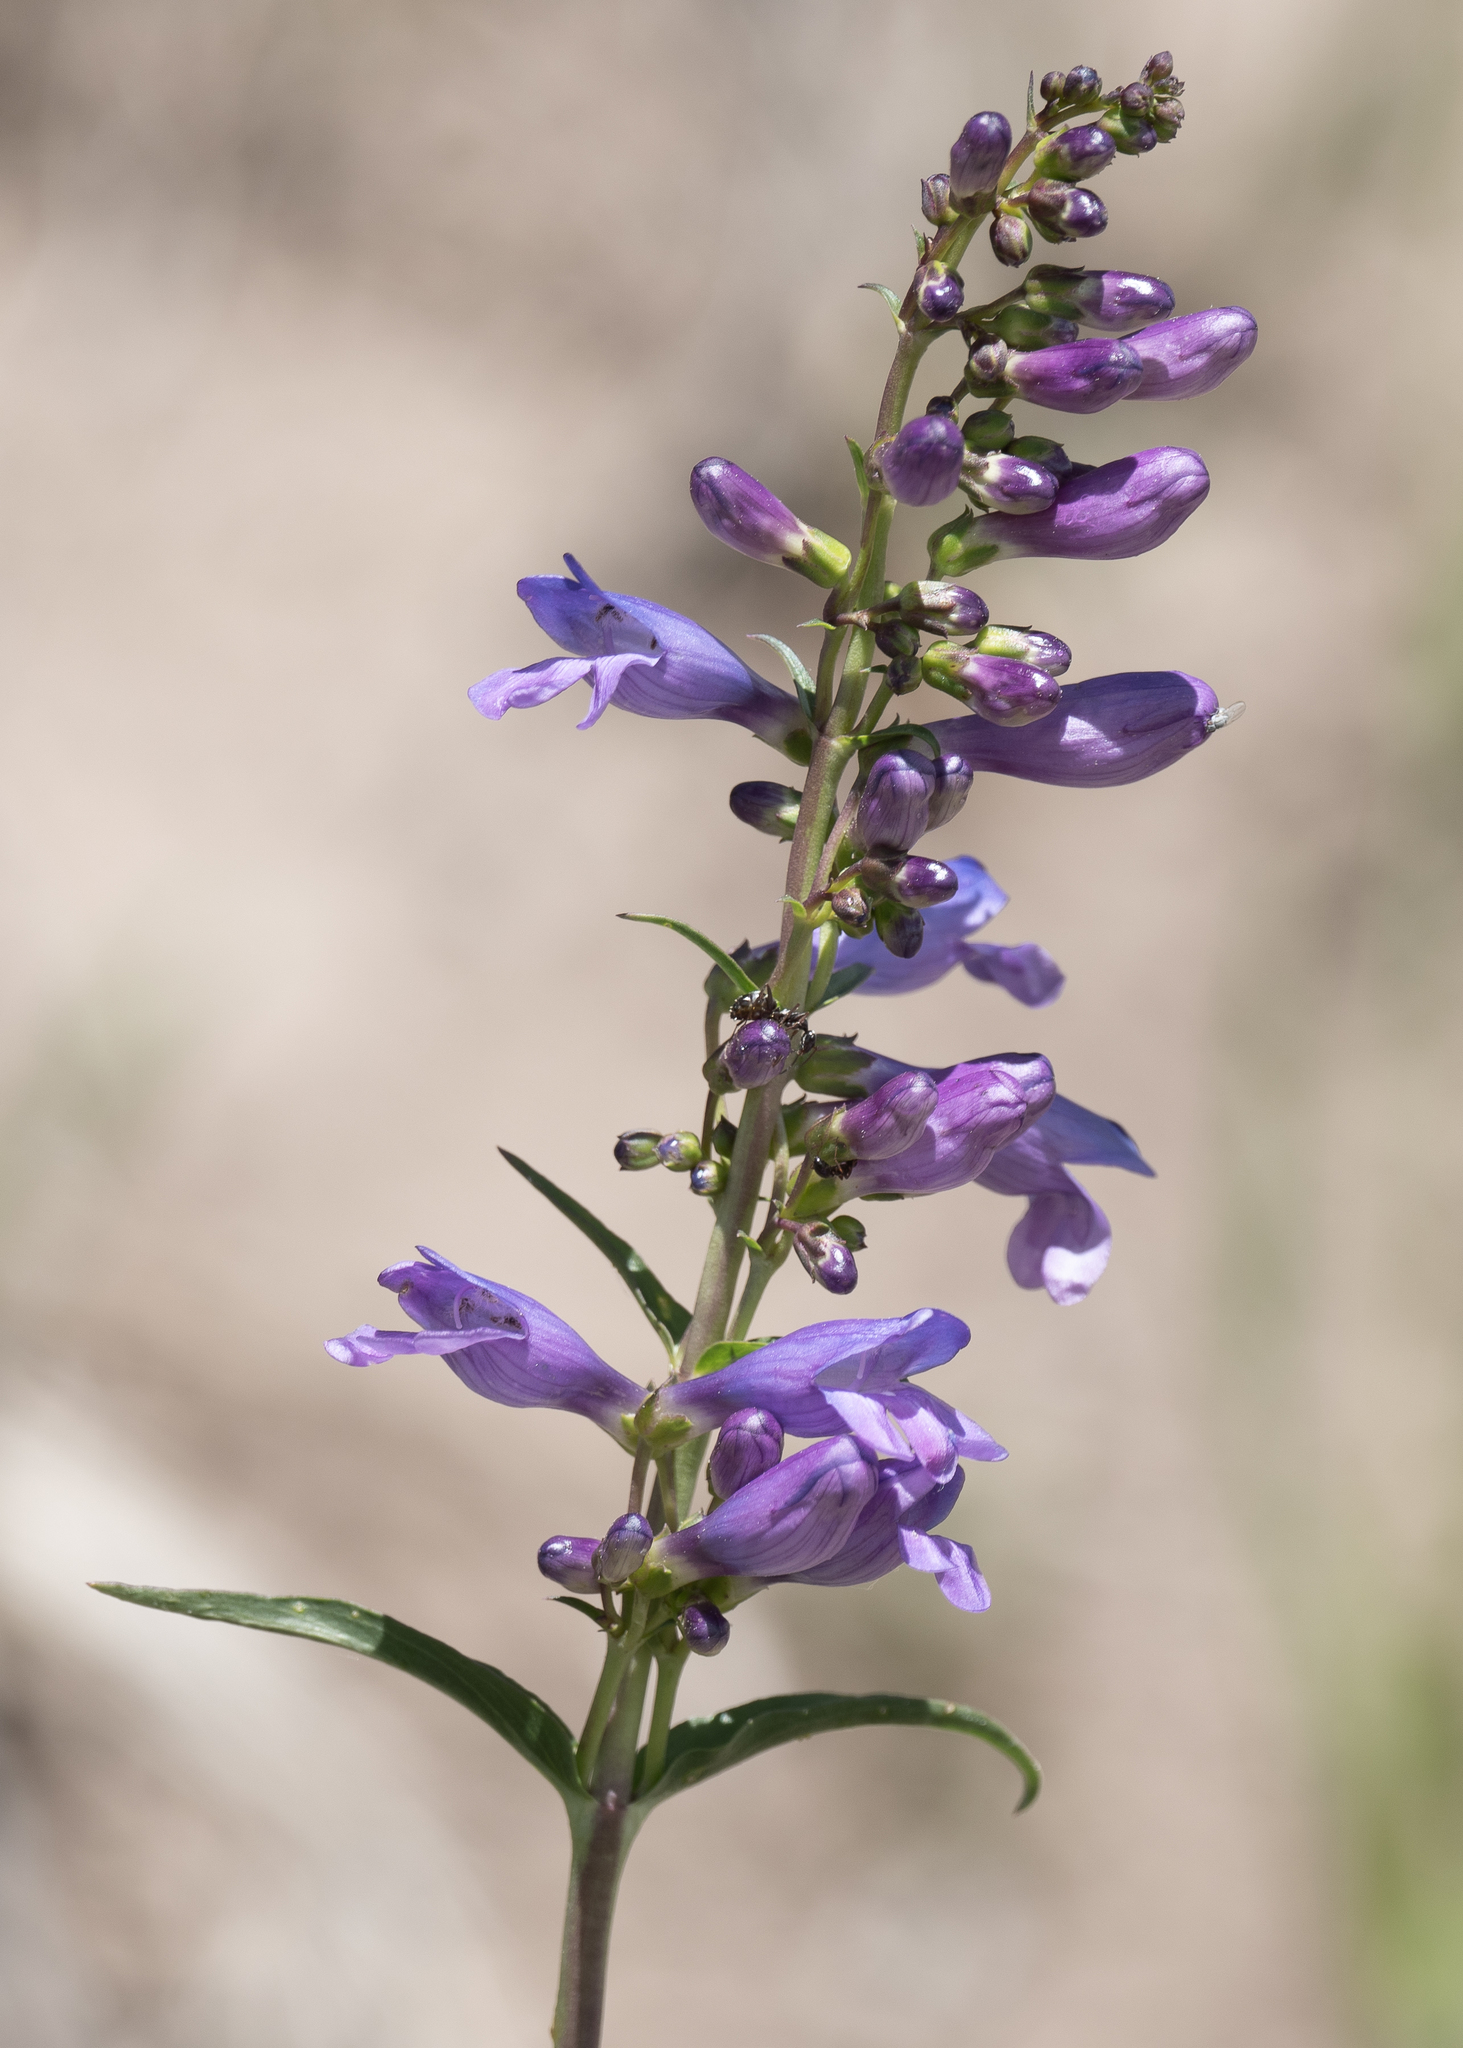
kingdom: Plantae
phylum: Tracheophyta
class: Magnoliopsida
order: Lamiales
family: Plantaginaceae
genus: Penstemon
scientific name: Penstemon strictus
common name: Rocky mountain penstemon
